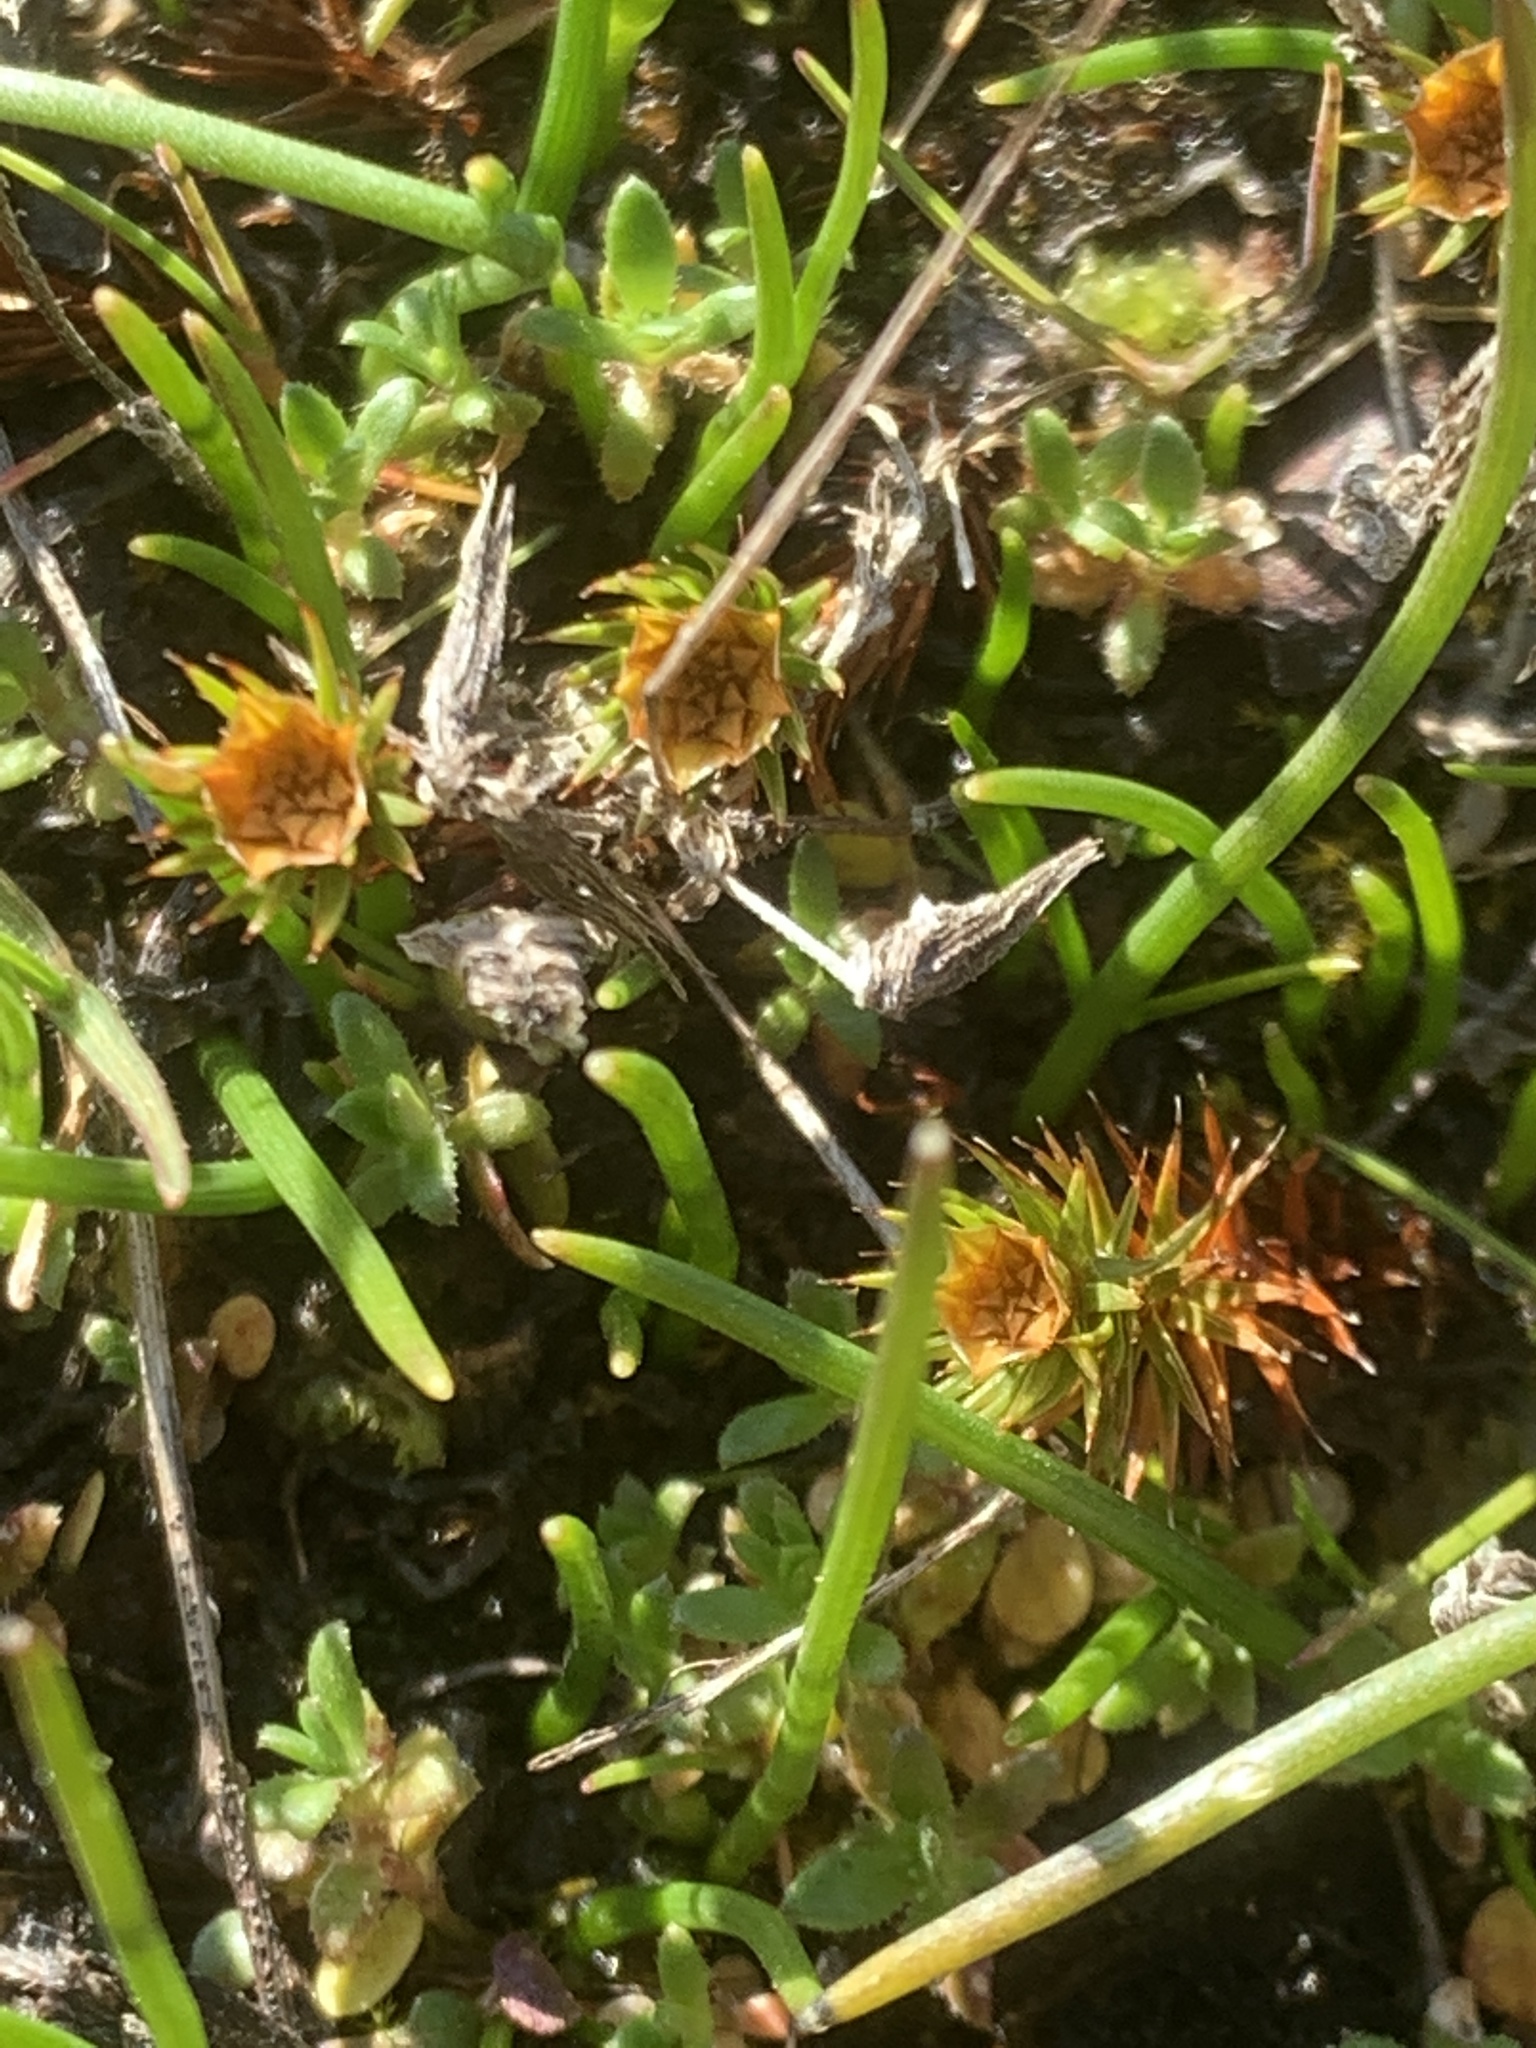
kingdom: Plantae
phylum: Bryophyta
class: Polytrichopsida
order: Polytrichales
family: Polytrichaceae
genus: Polytrichum
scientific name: Polytrichum piliferum
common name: Bristly haircap
